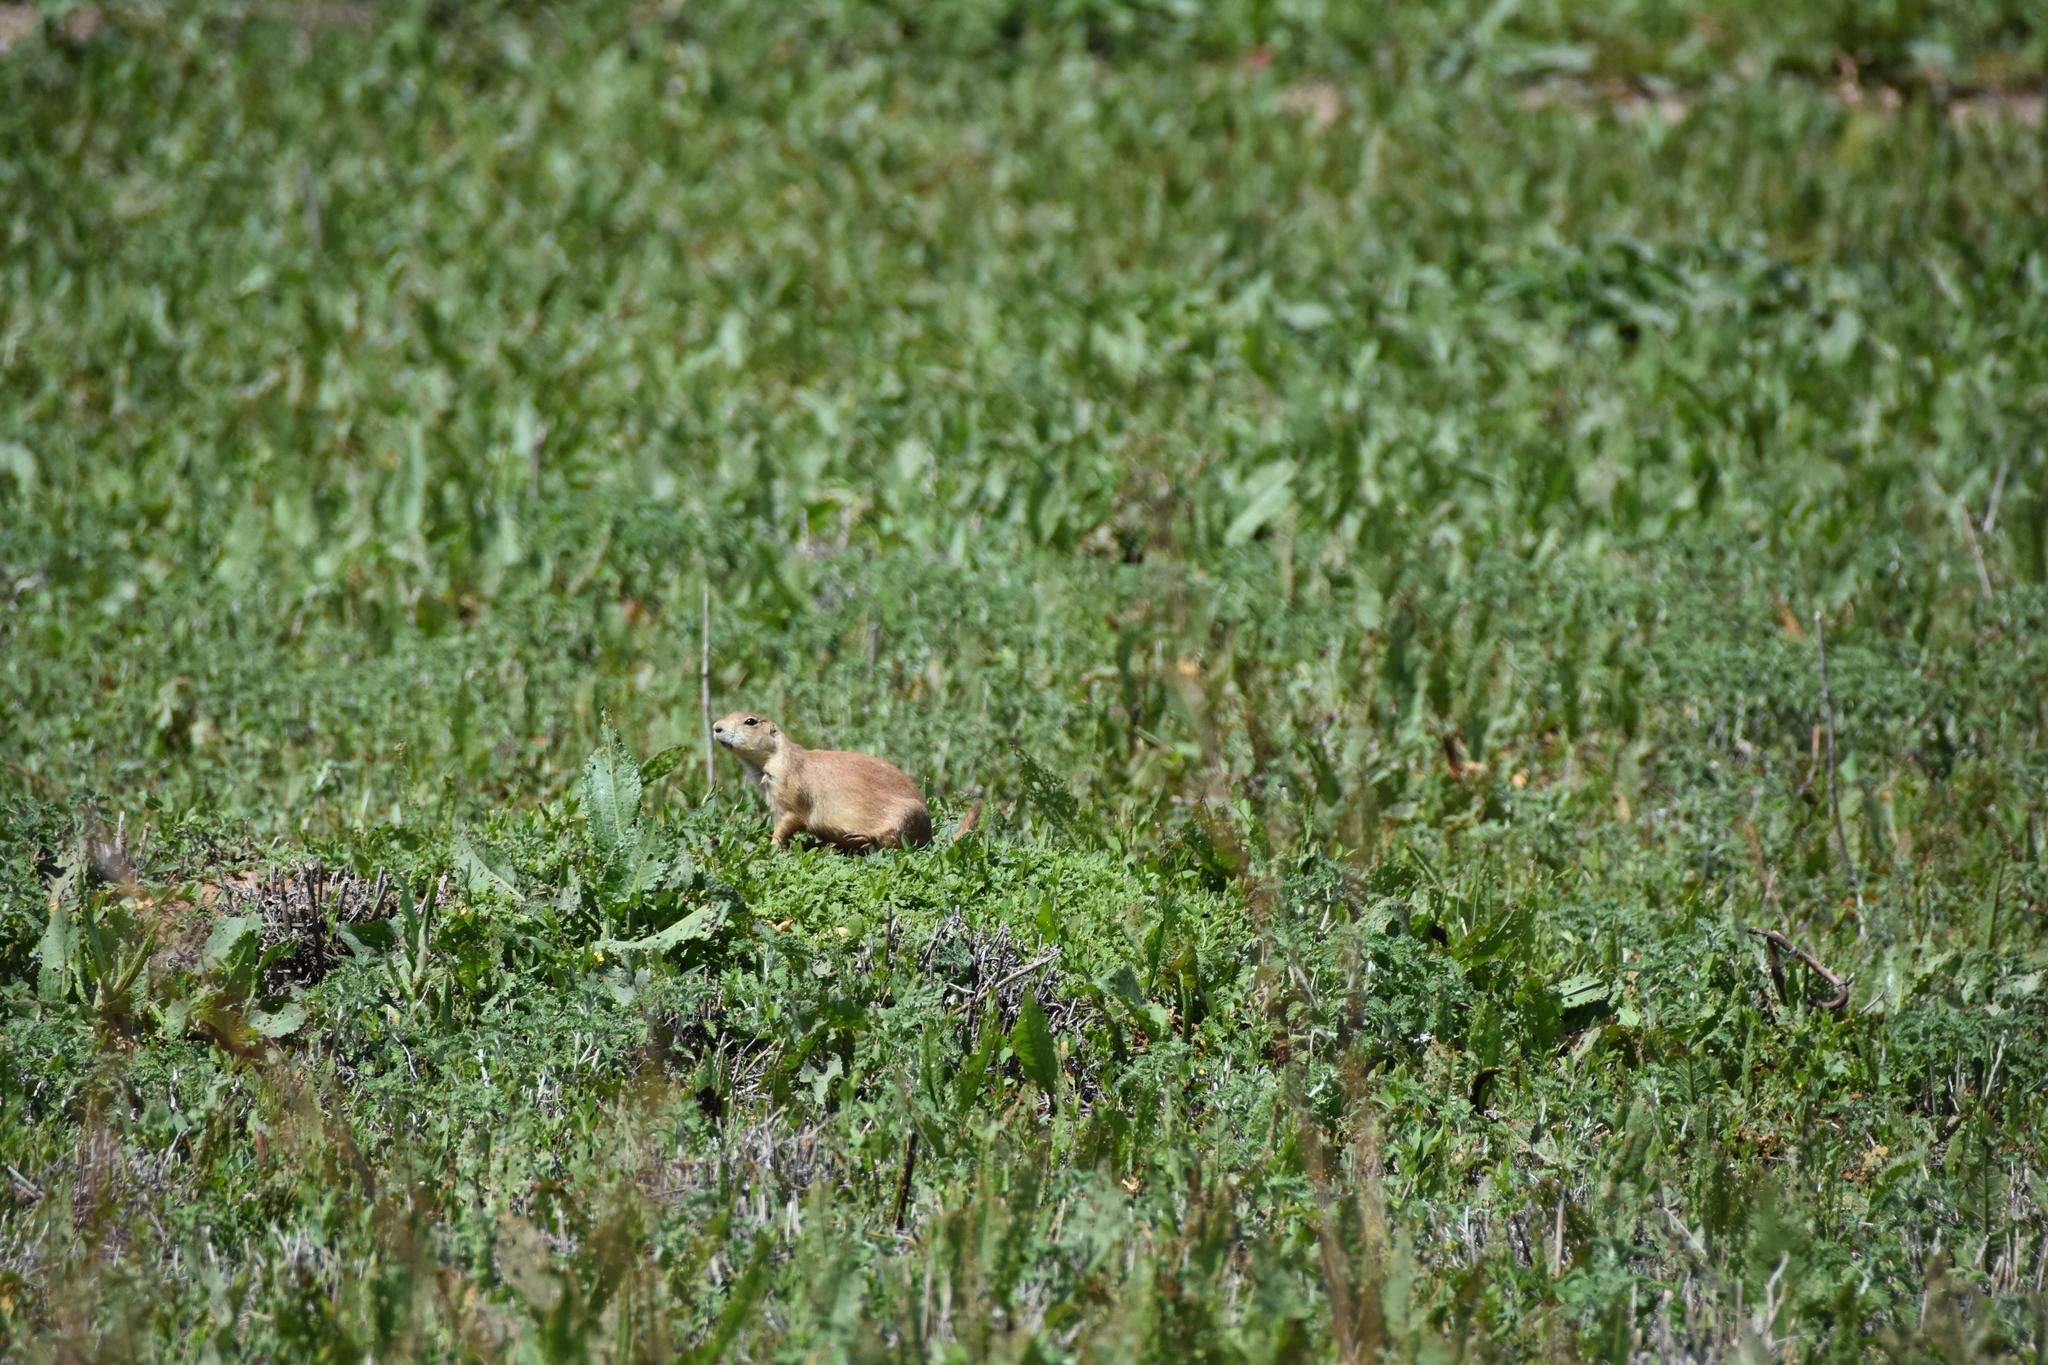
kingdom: Animalia
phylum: Chordata
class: Mammalia
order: Rodentia
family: Sciuridae
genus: Cynomys
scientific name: Cynomys ludovicianus
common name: Black-tailed prairie dog
